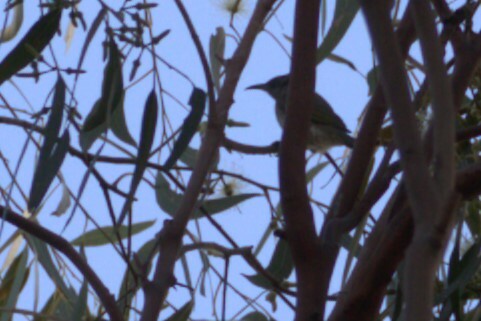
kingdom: Animalia
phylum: Chordata
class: Aves
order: Passeriformes
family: Meliphagidae
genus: Lichmera
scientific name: Lichmera indistincta
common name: Brown honeyeater
